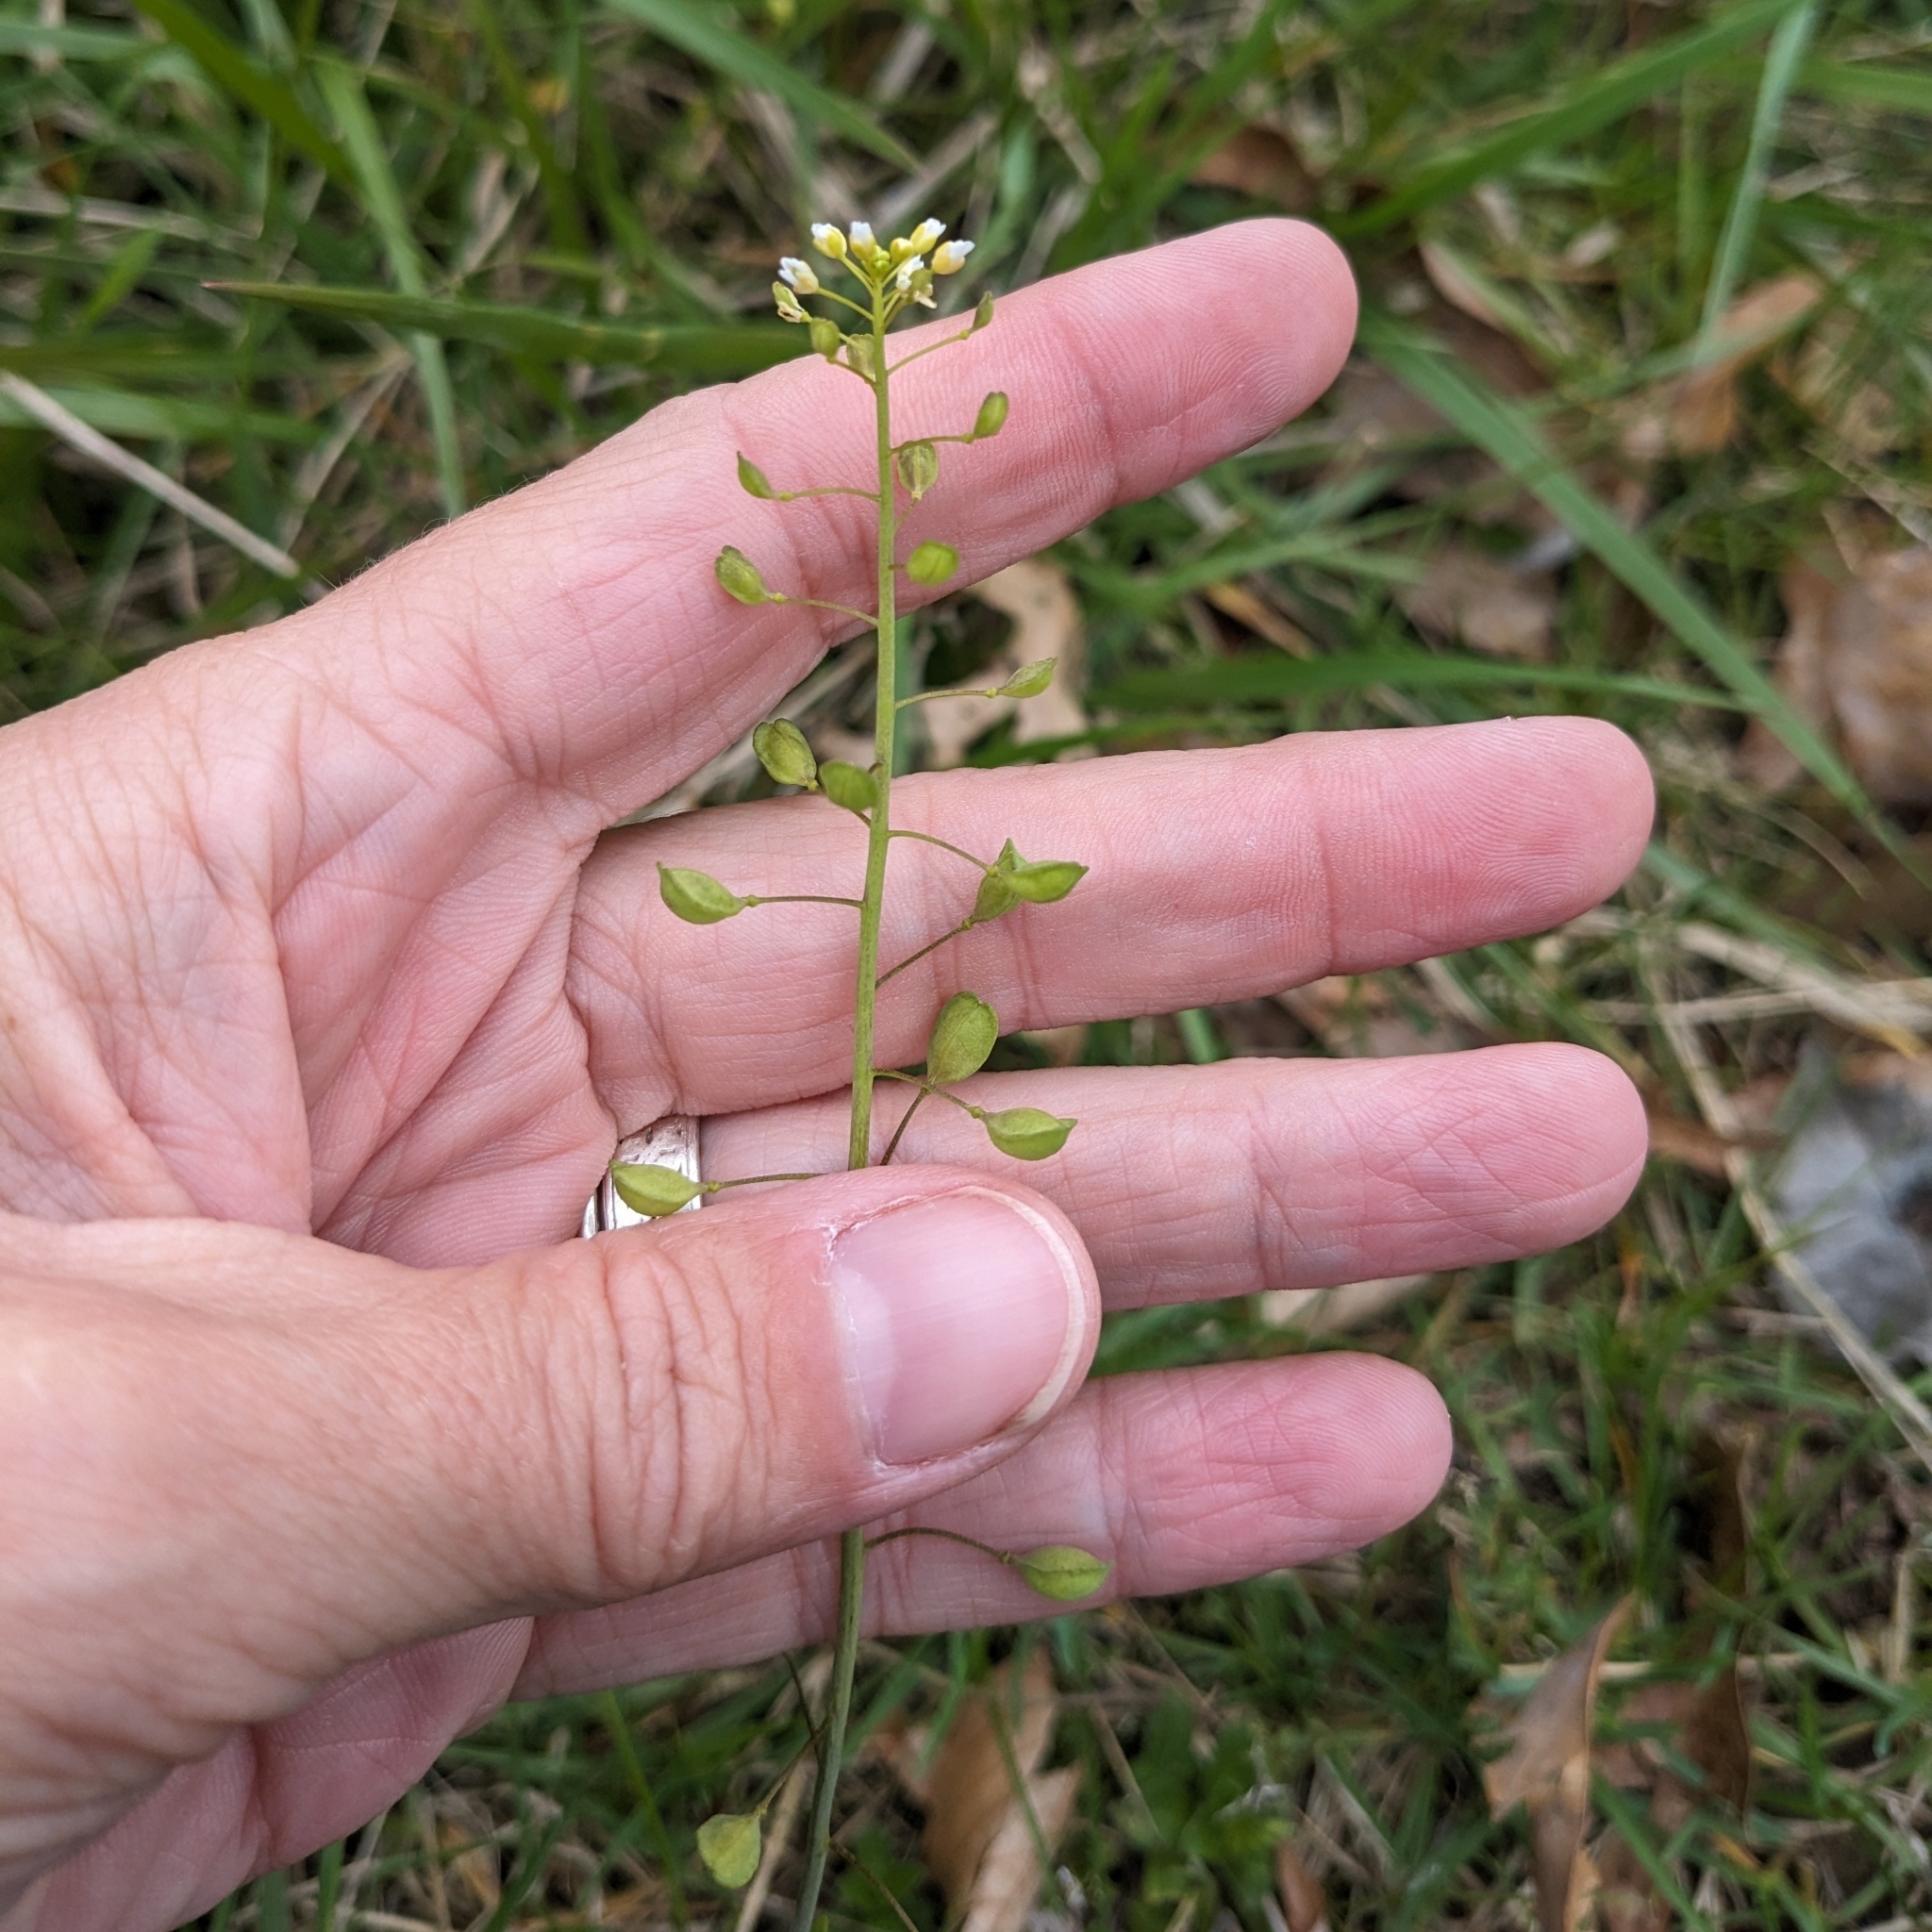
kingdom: Plantae
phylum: Tracheophyta
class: Magnoliopsida
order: Brassicales
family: Brassicaceae
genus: Mummenhoffia
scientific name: Mummenhoffia alliacea
